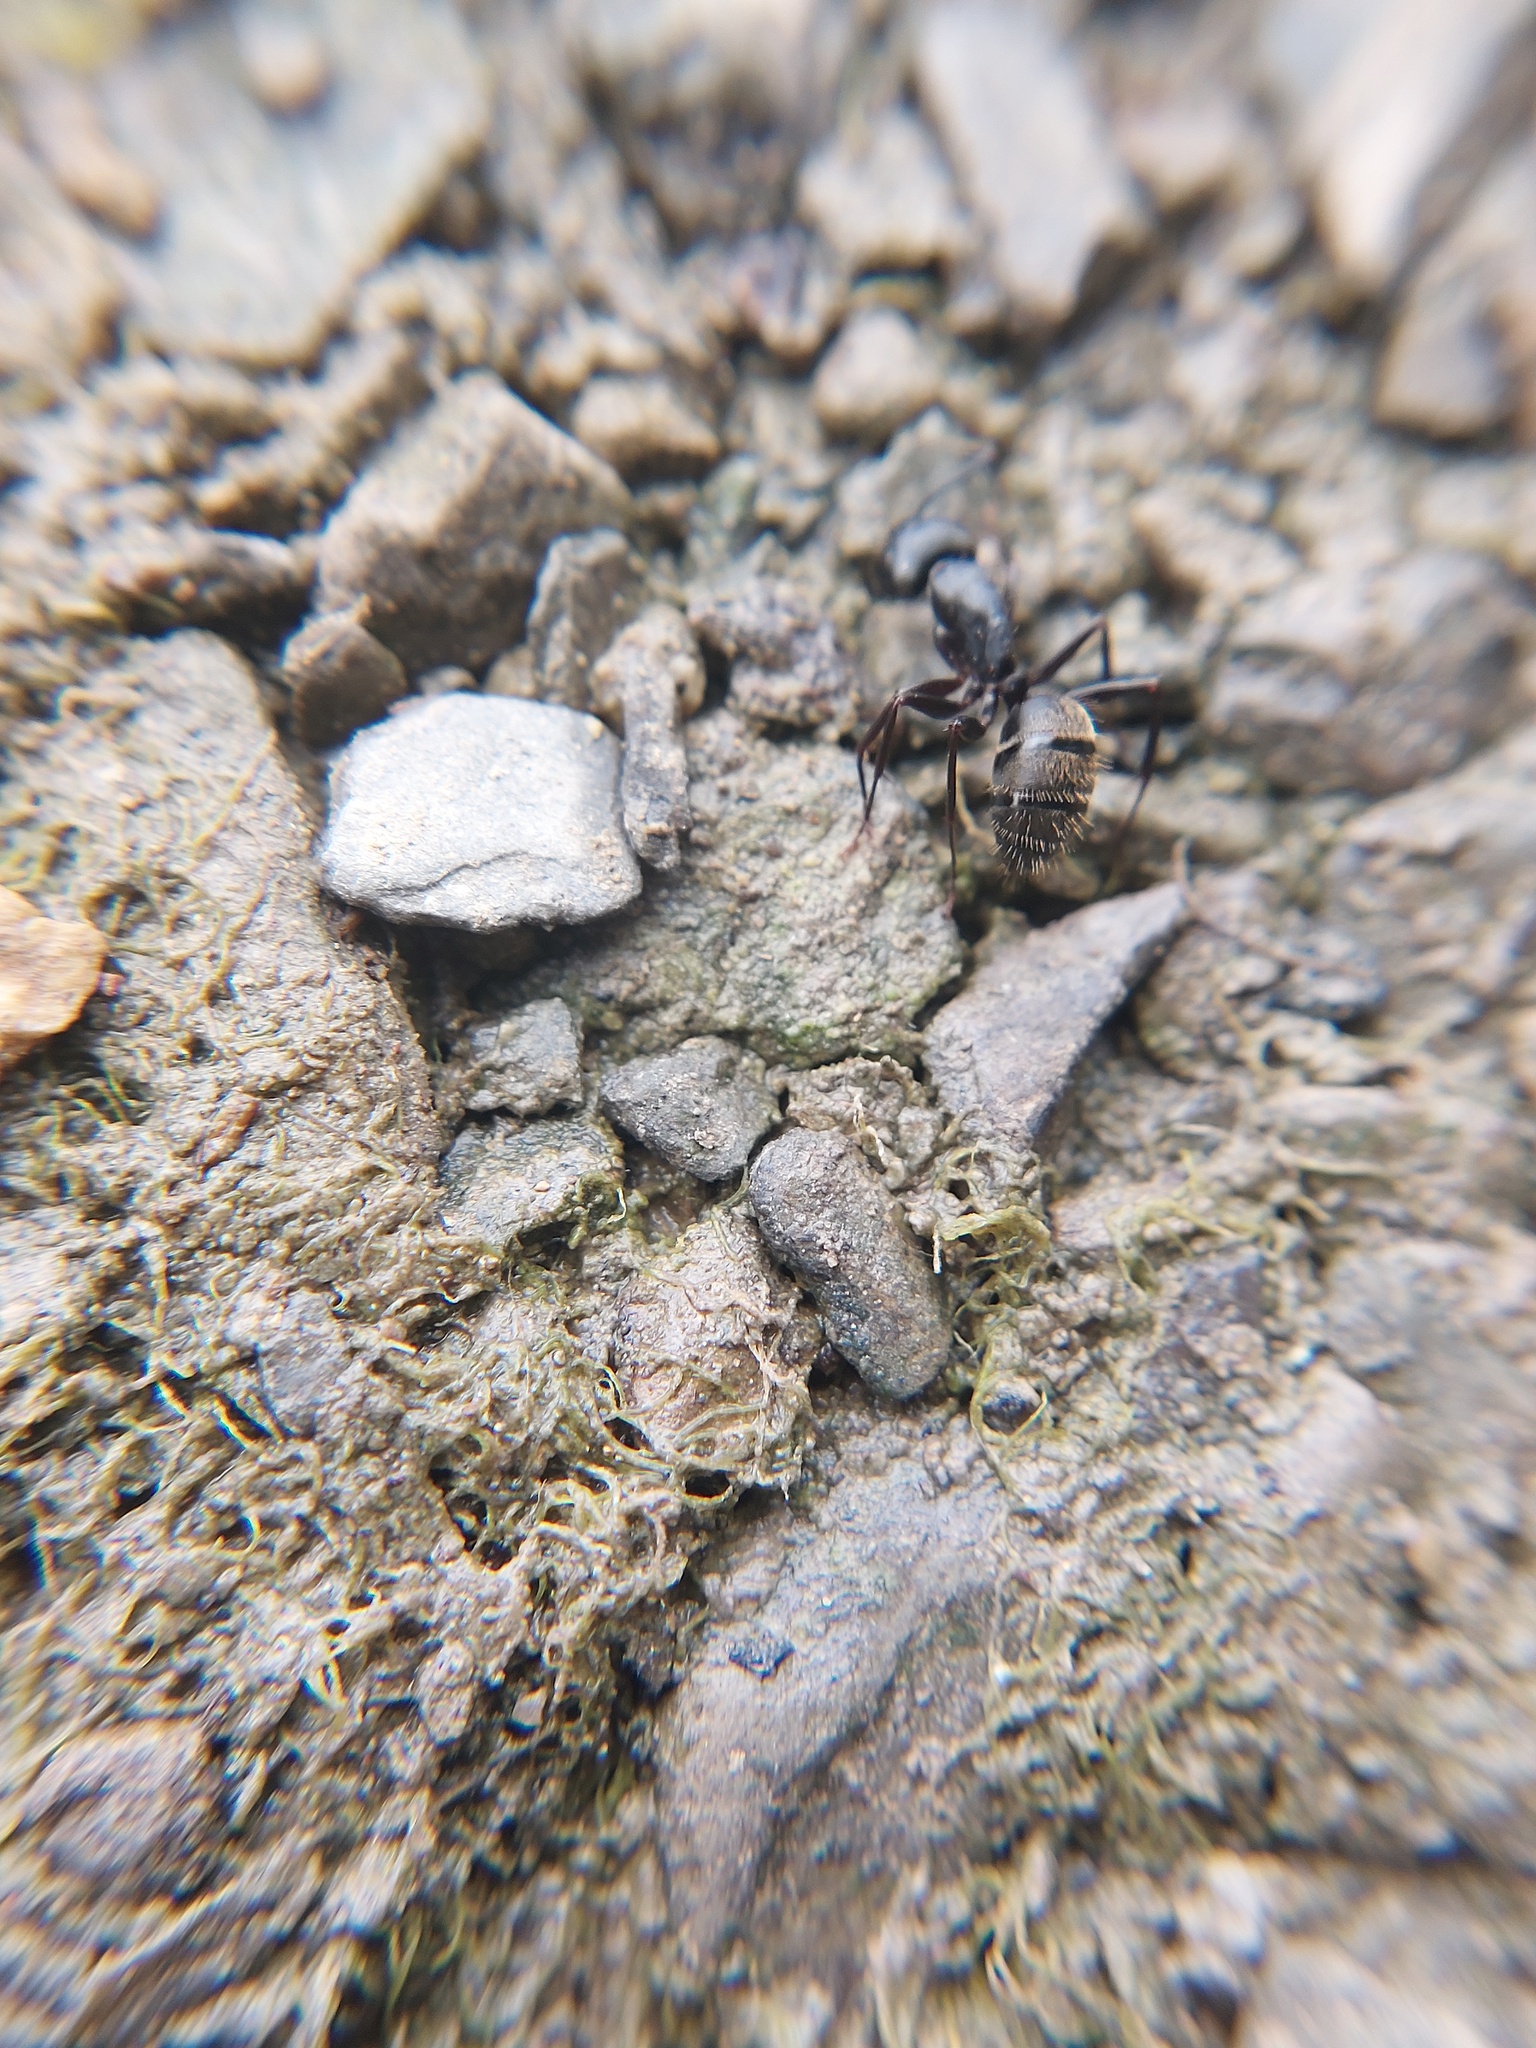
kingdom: Animalia
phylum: Arthropoda
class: Insecta
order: Hymenoptera
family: Formicidae
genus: Camponotus
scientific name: Camponotus pennsylvanicus
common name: Black carpenter ant
